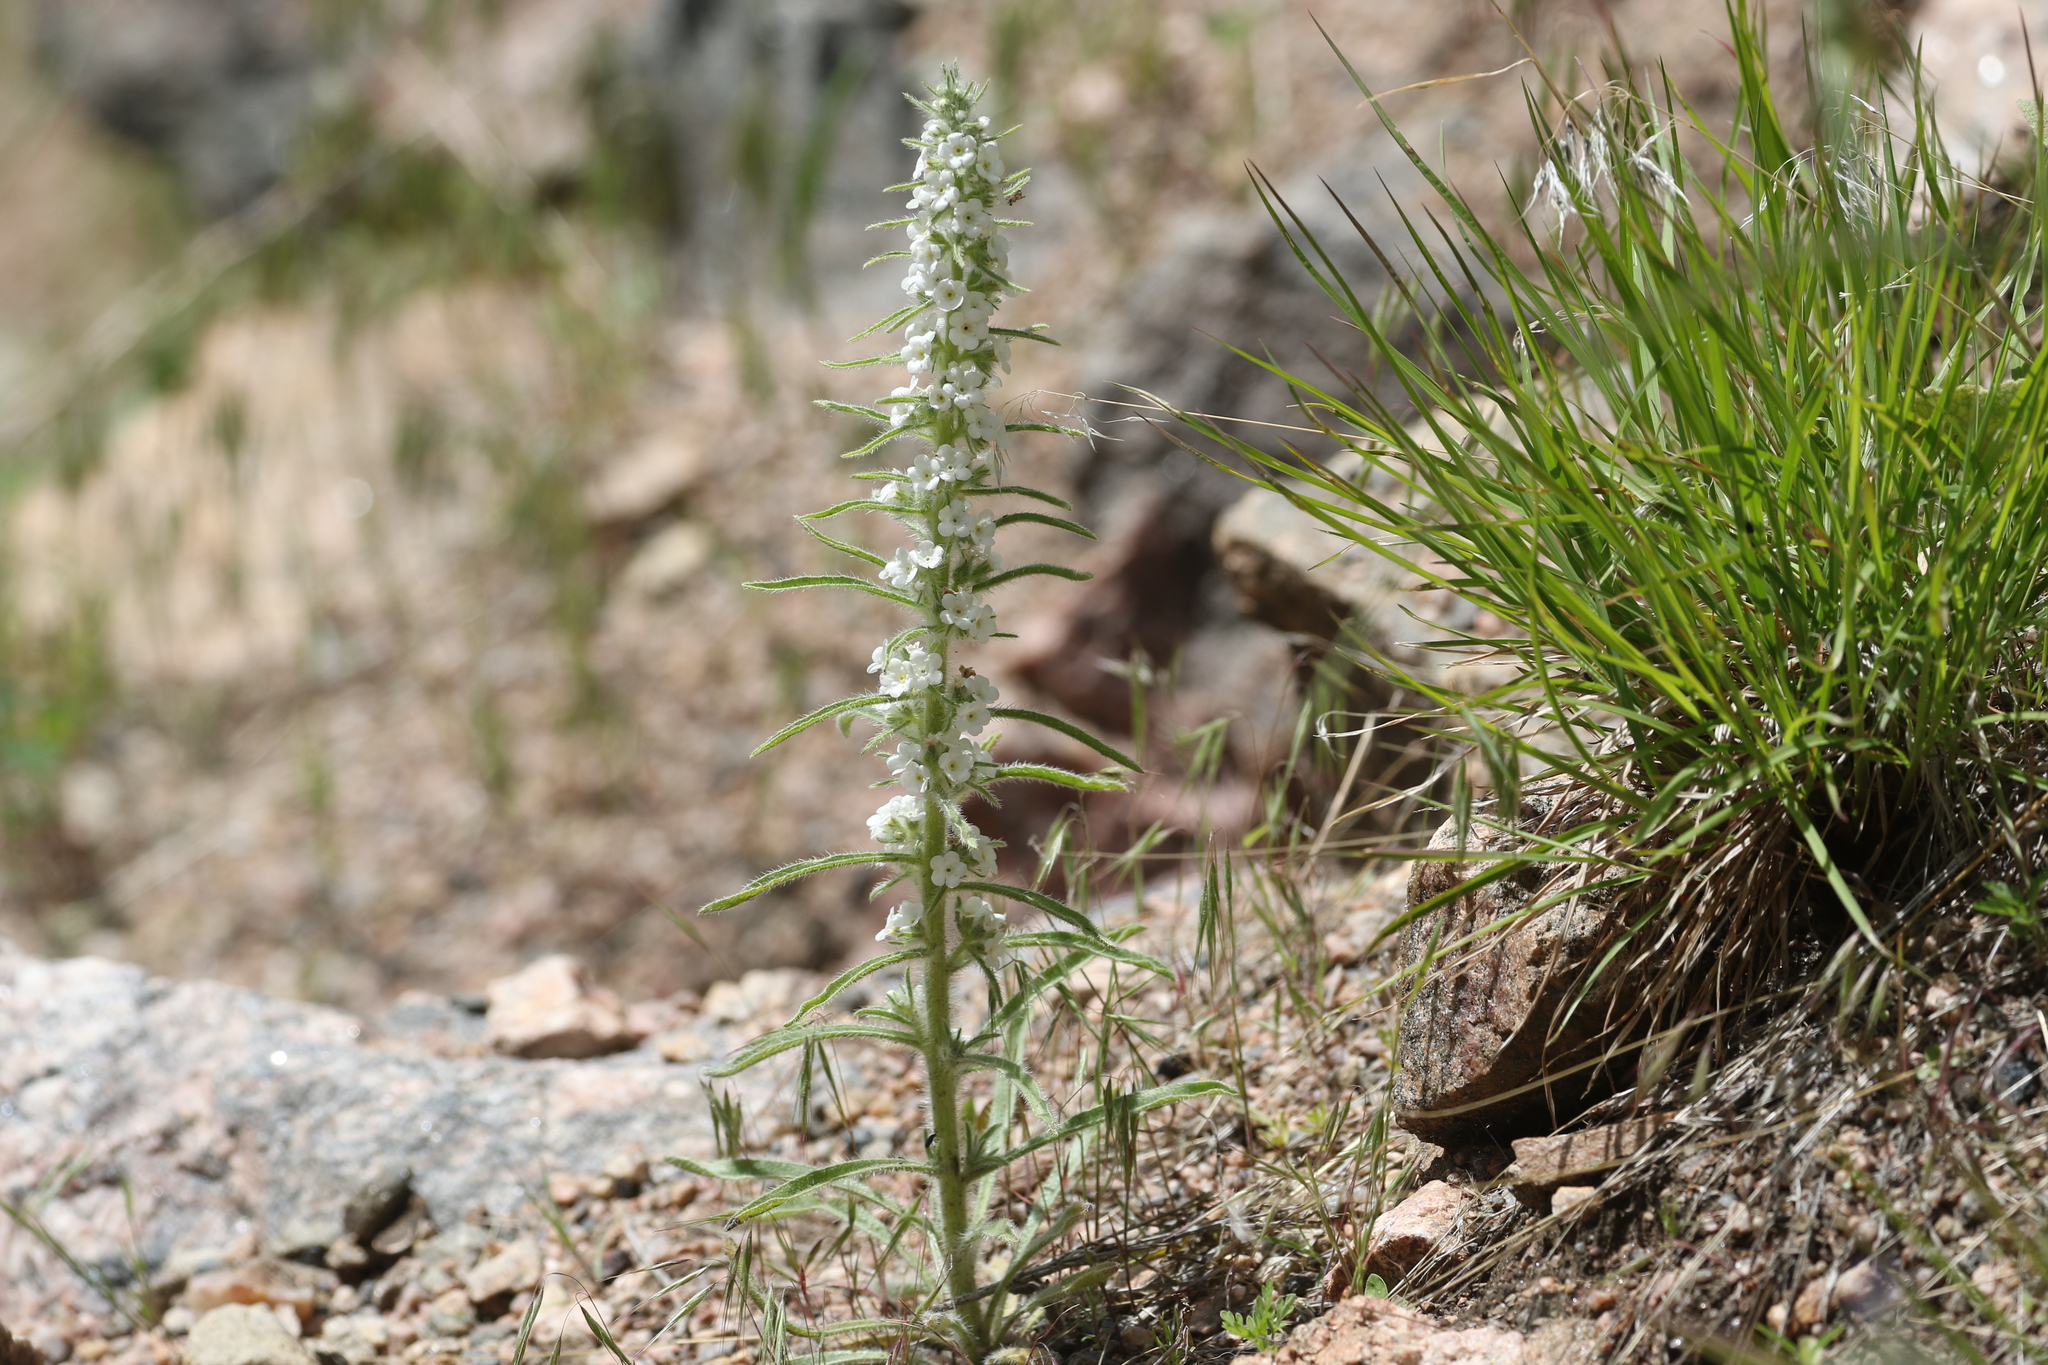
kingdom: Plantae
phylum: Tracheophyta
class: Magnoliopsida
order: Boraginales
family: Boraginaceae
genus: Oreocarya
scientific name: Oreocarya virgata
